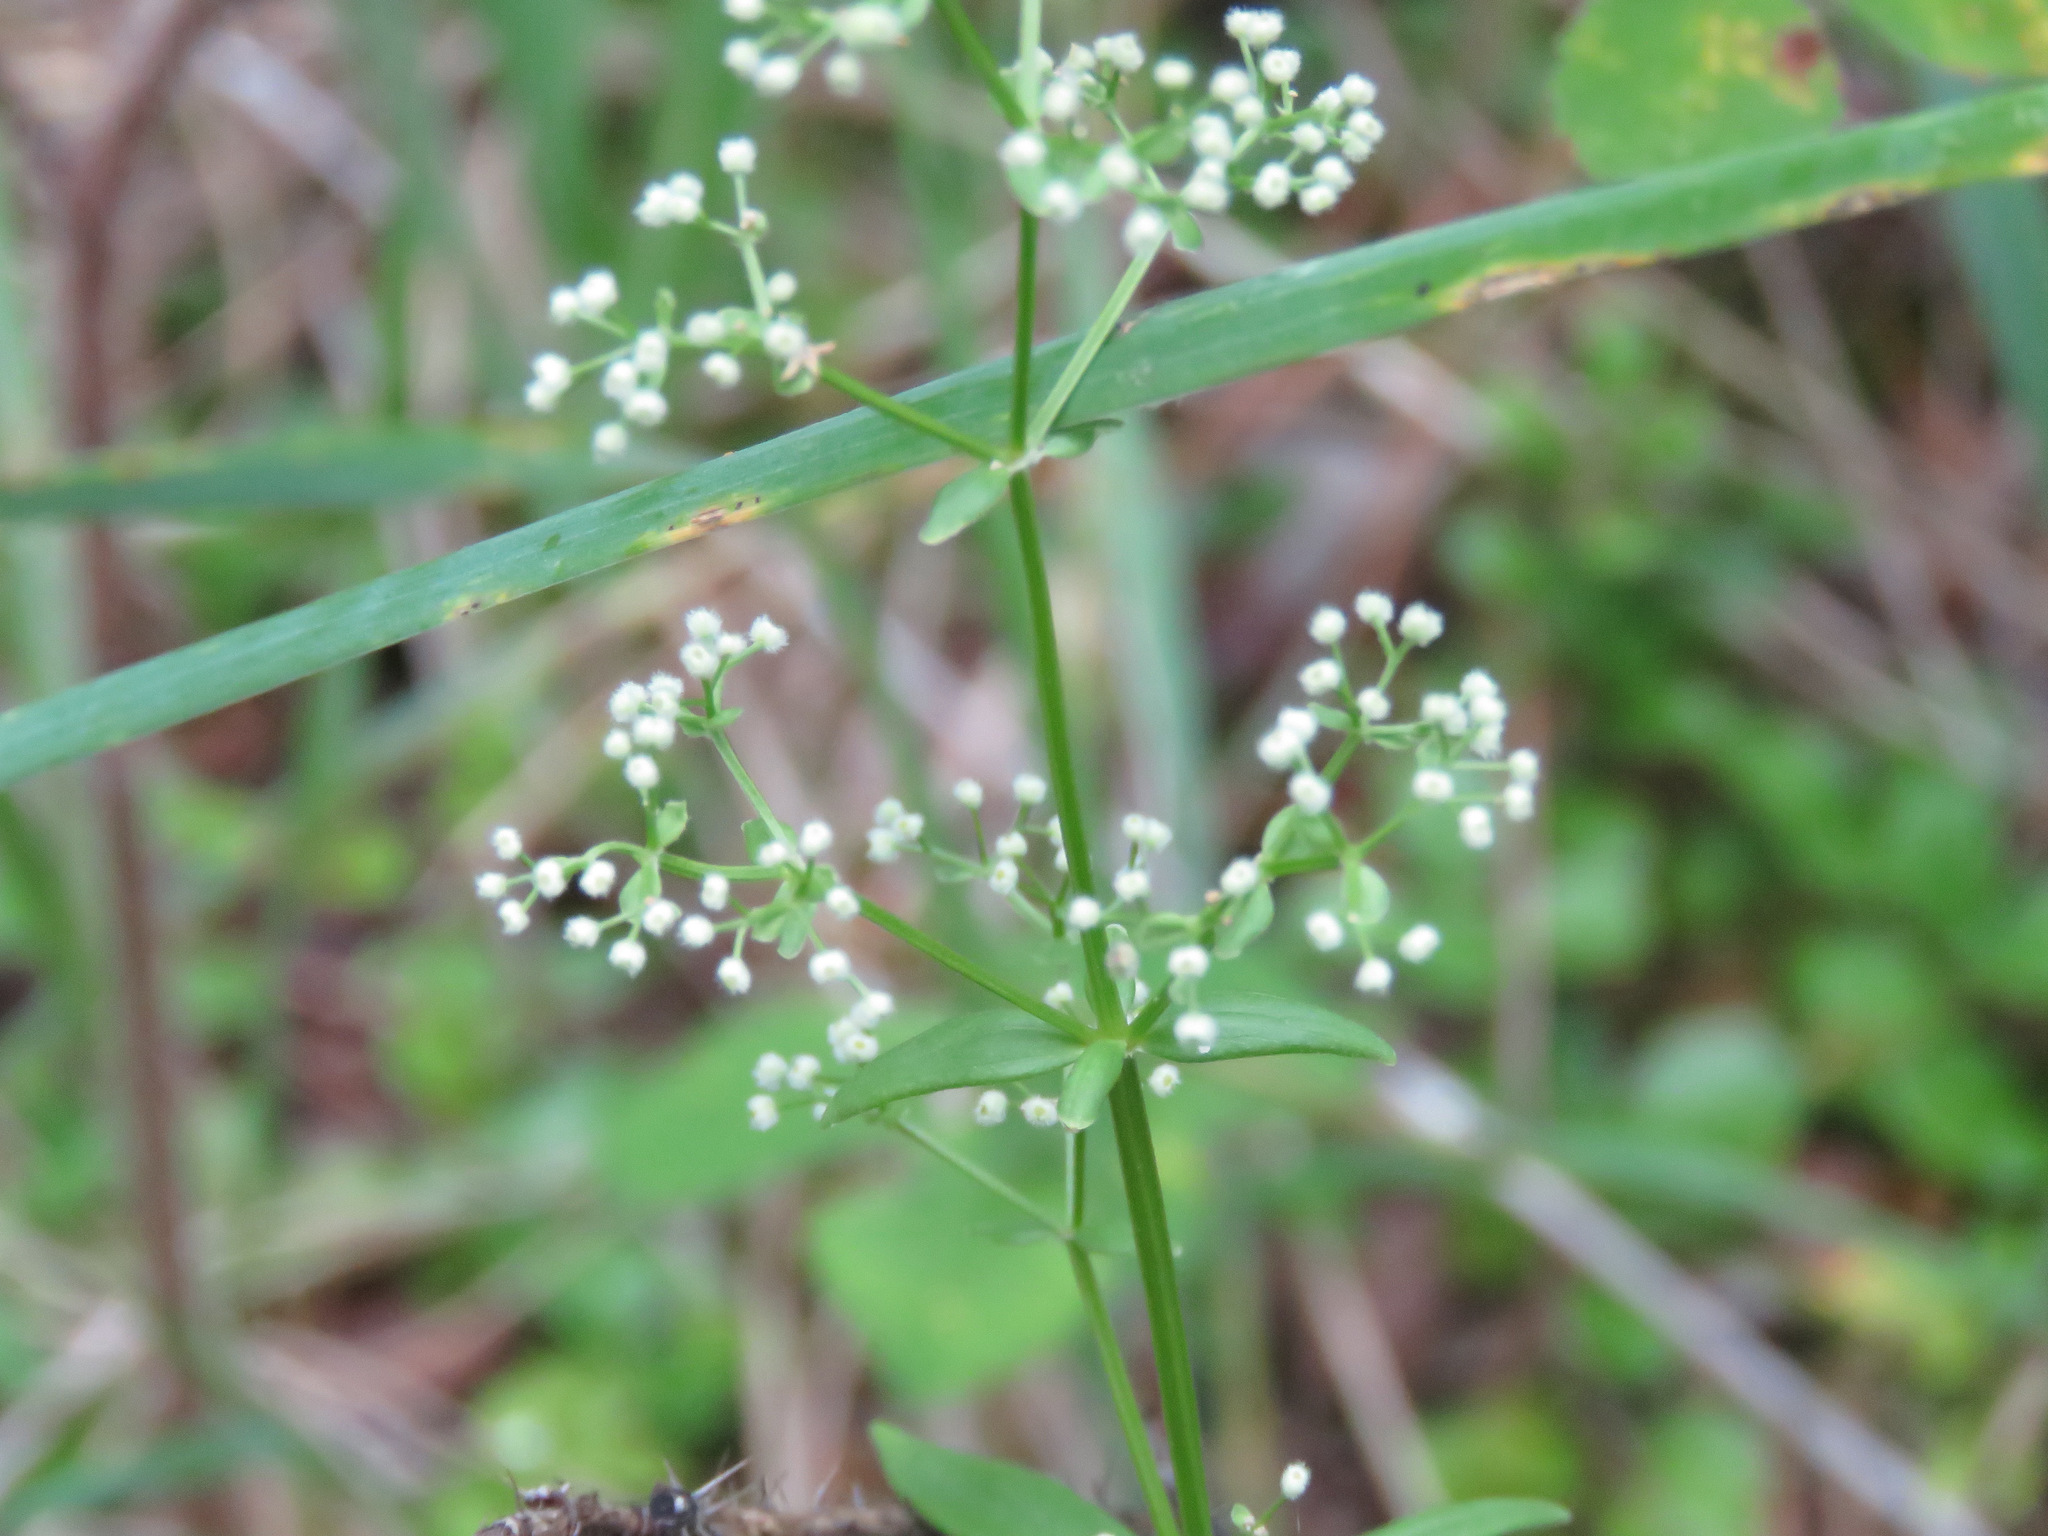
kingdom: Plantae
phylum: Tracheophyta
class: Magnoliopsida
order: Gentianales
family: Rubiaceae
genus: Galium
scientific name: Galium boreale
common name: Northern bedstraw
